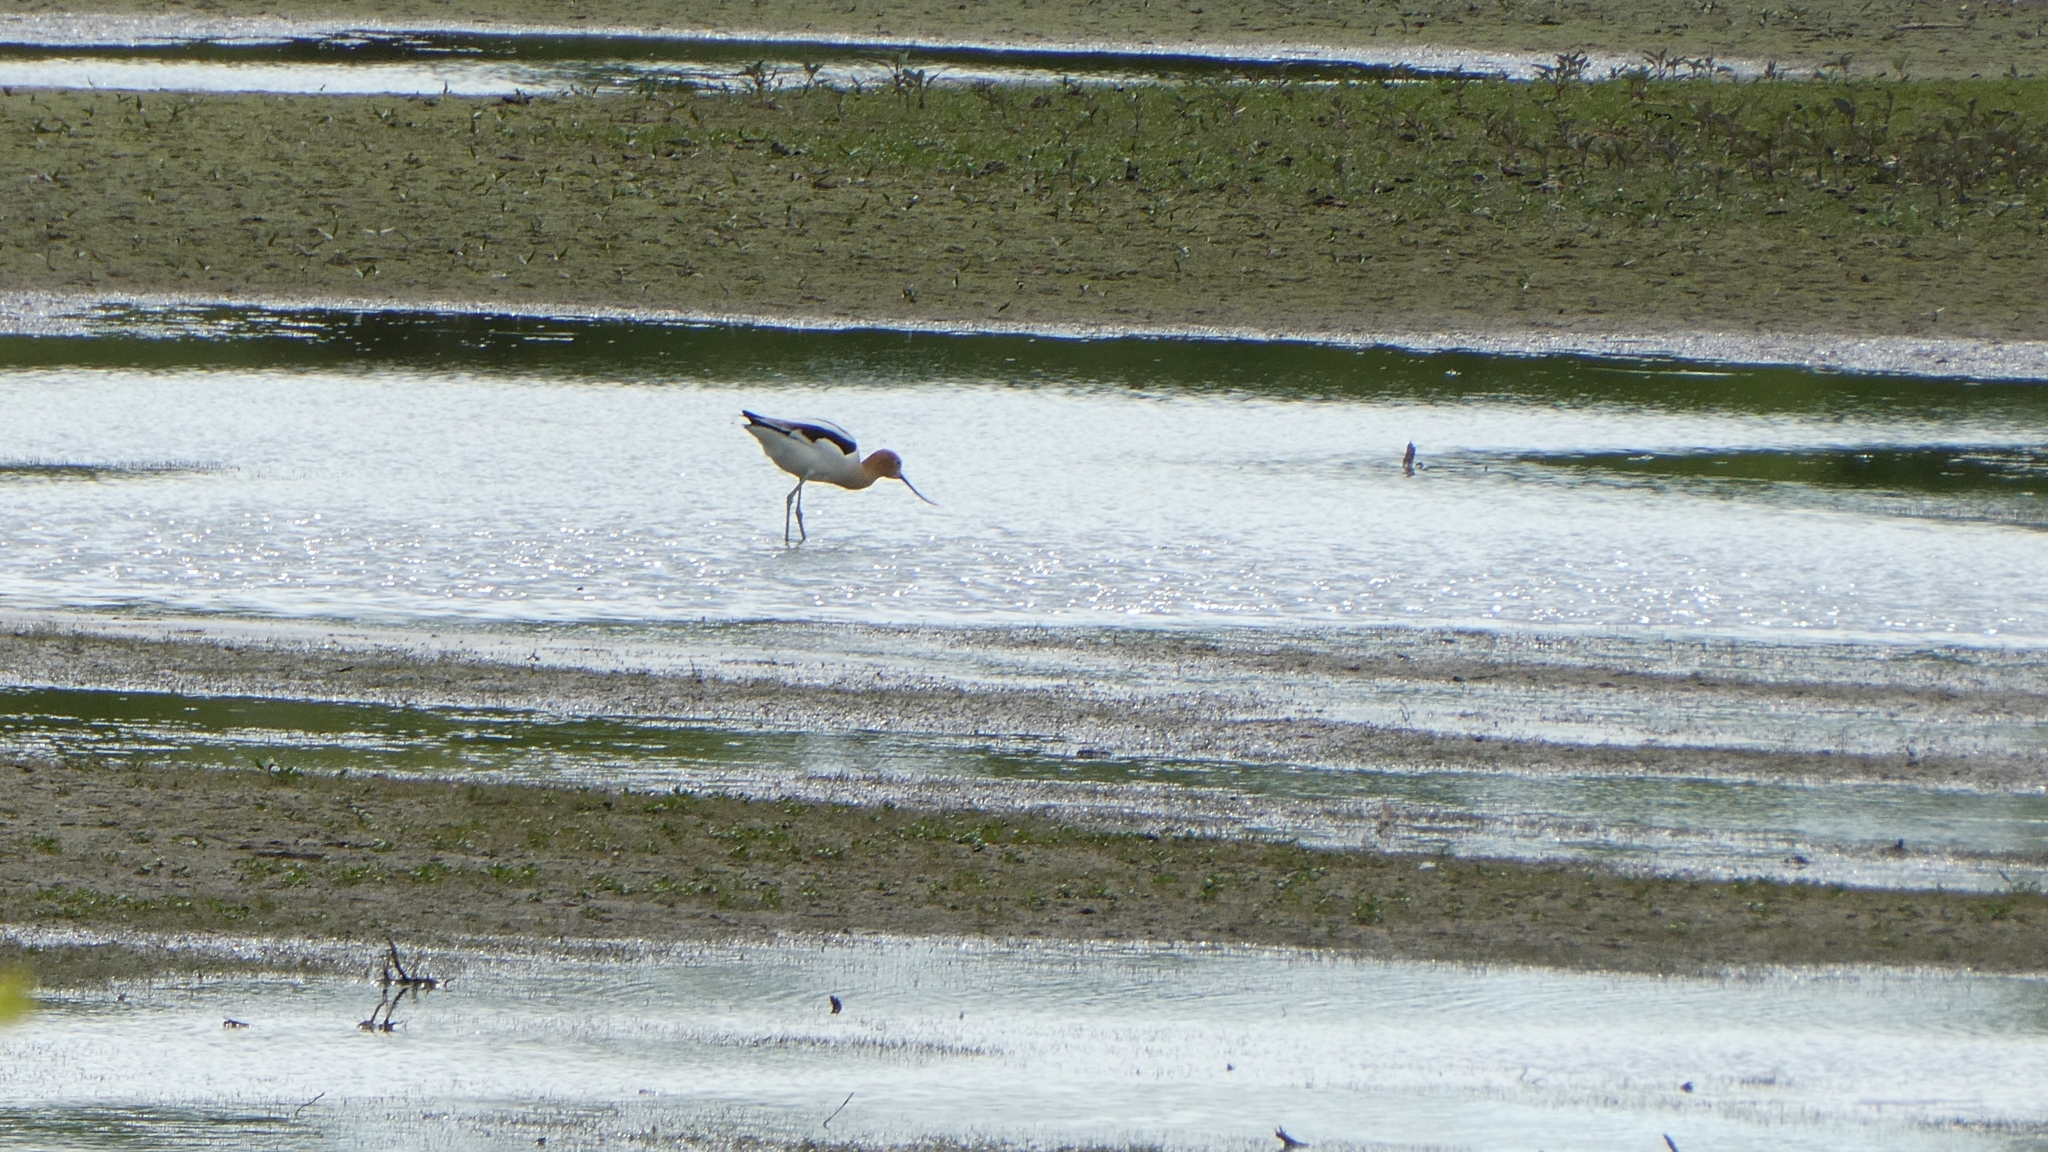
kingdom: Animalia
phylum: Chordata
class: Aves
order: Charadriiformes
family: Recurvirostridae
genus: Recurvirostra
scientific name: Recurvirostra americana
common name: American avocet
